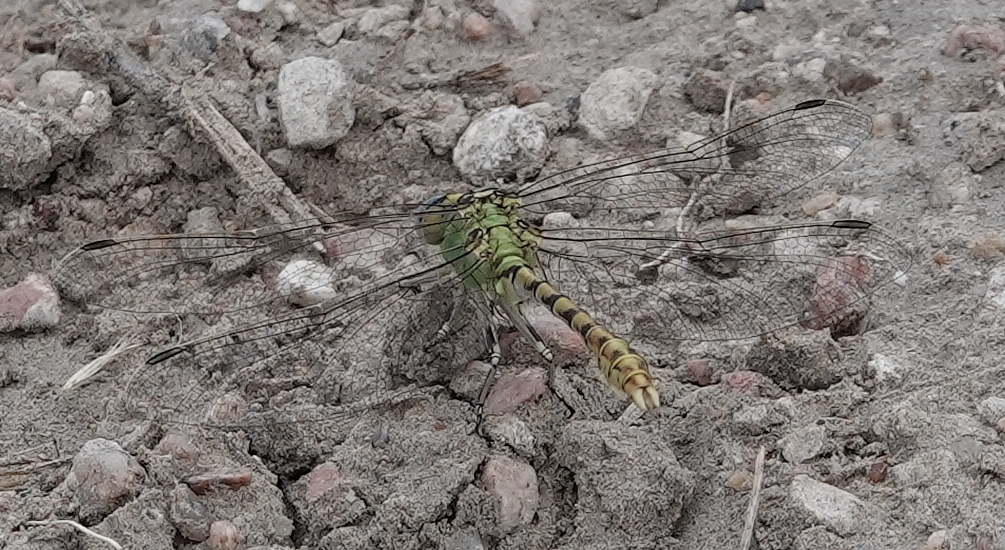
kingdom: Animalia
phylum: Arthropoda
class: Insecta
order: Odonata
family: Gomphidae
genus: Ophiogomphus
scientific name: Ophiogomphus severus
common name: Pale snaketail
